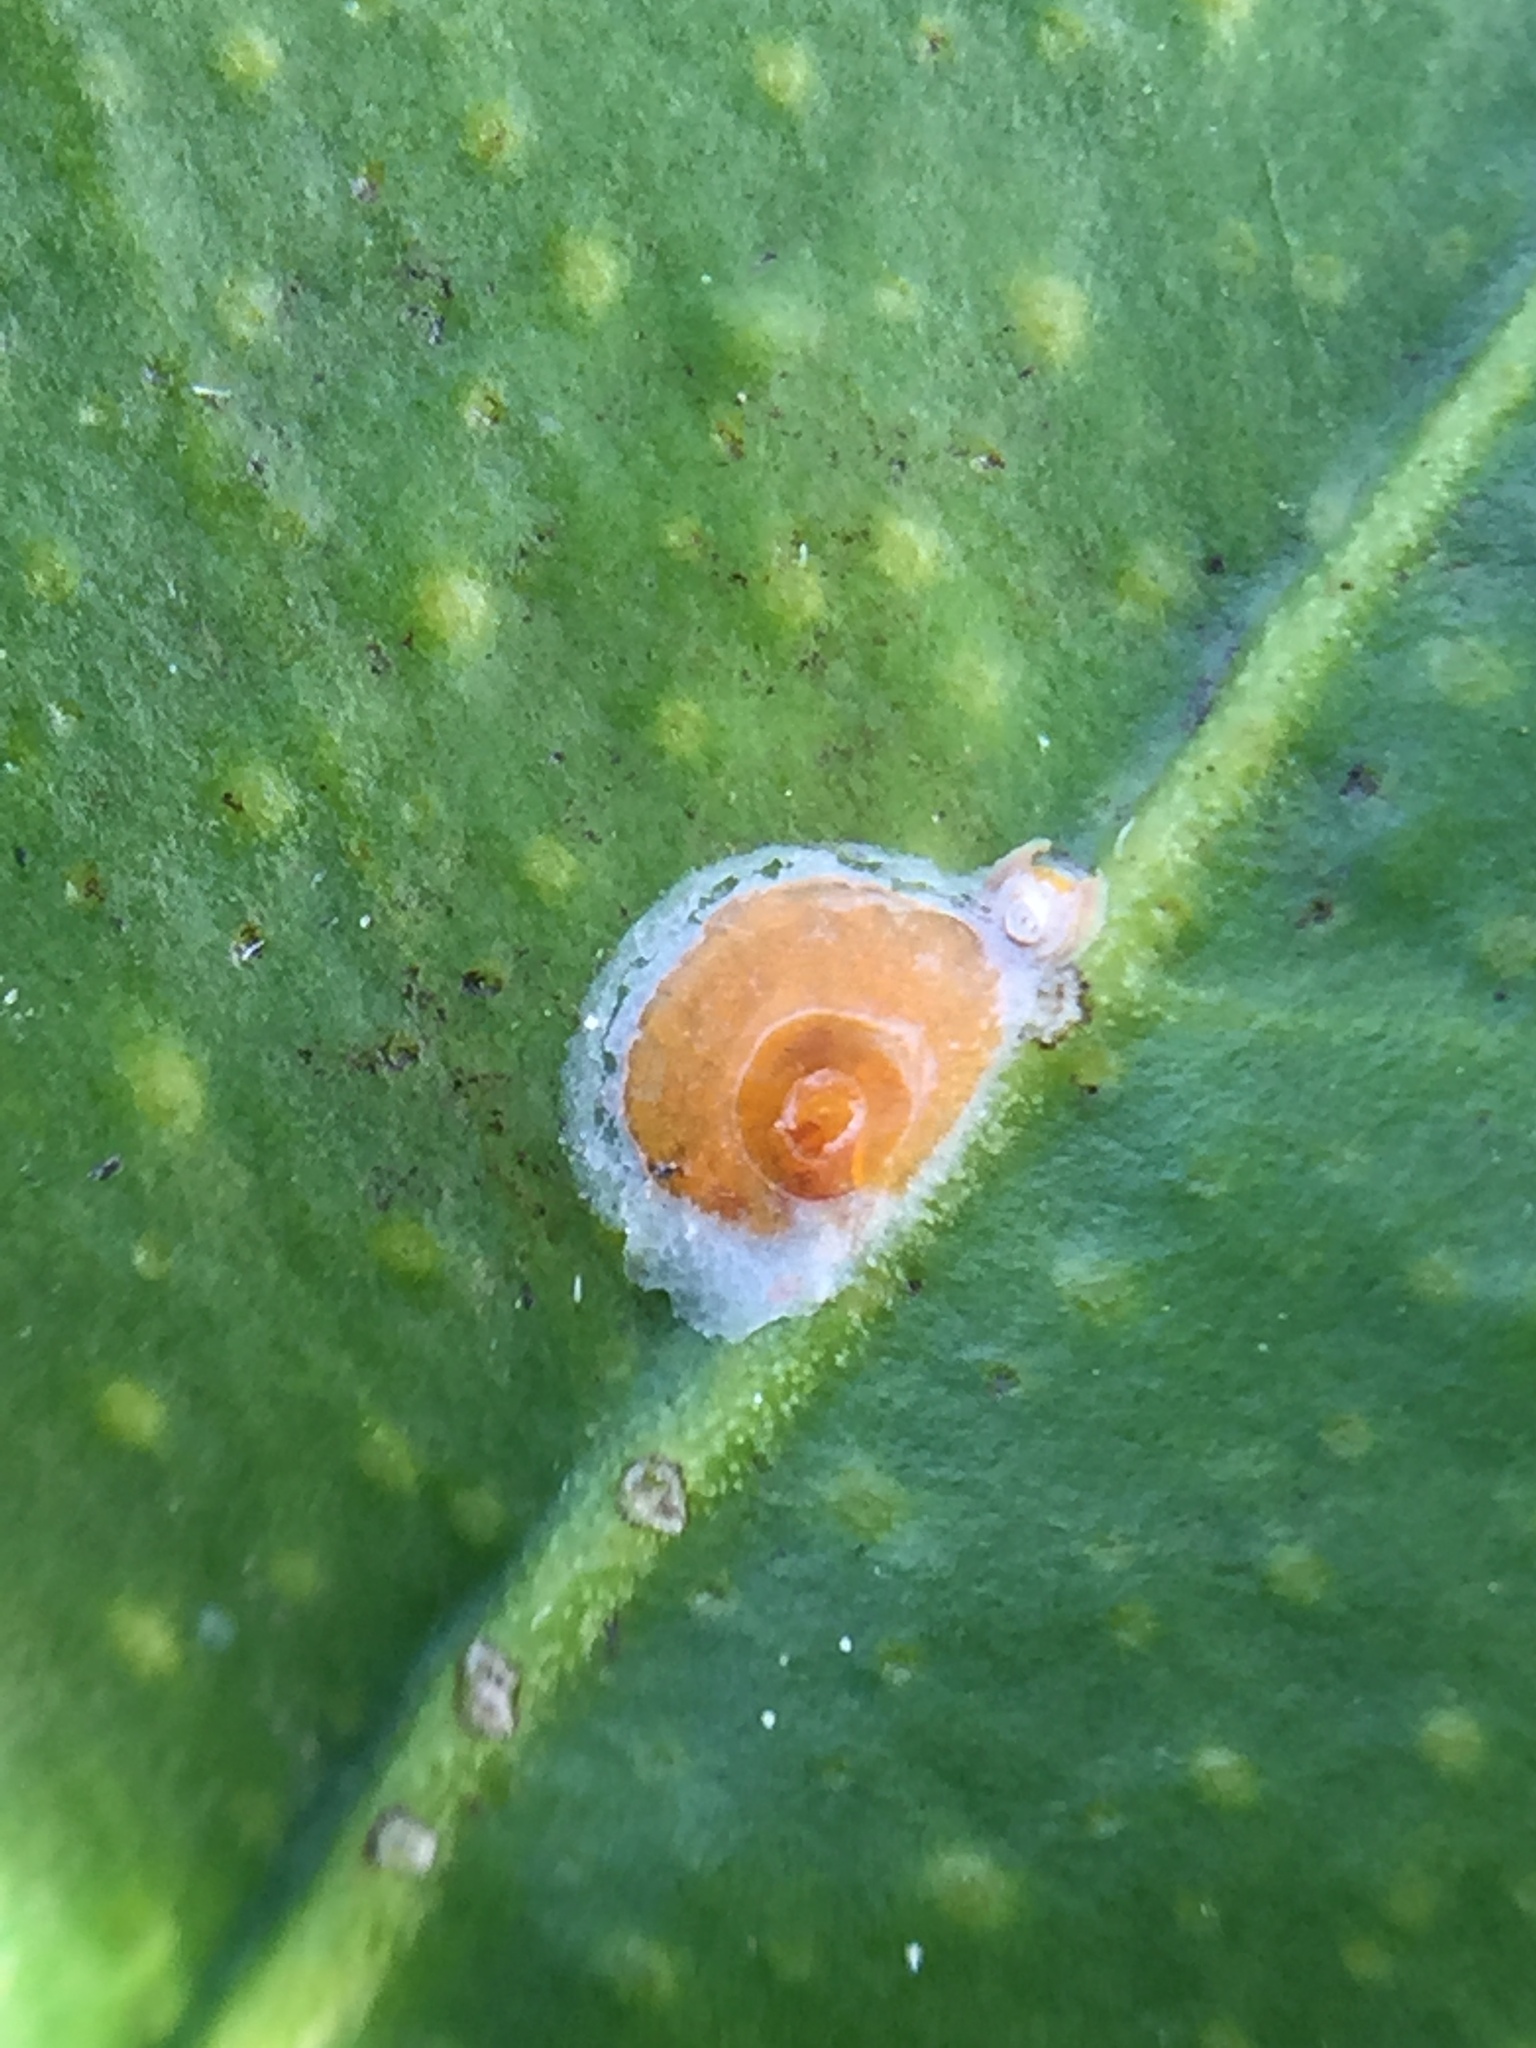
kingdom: Animalia
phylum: Arthropoda
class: Insecta
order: Hemiptera
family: Diaspididae
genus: Aonidiella
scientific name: Aonidiella aurantii
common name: California red scale
